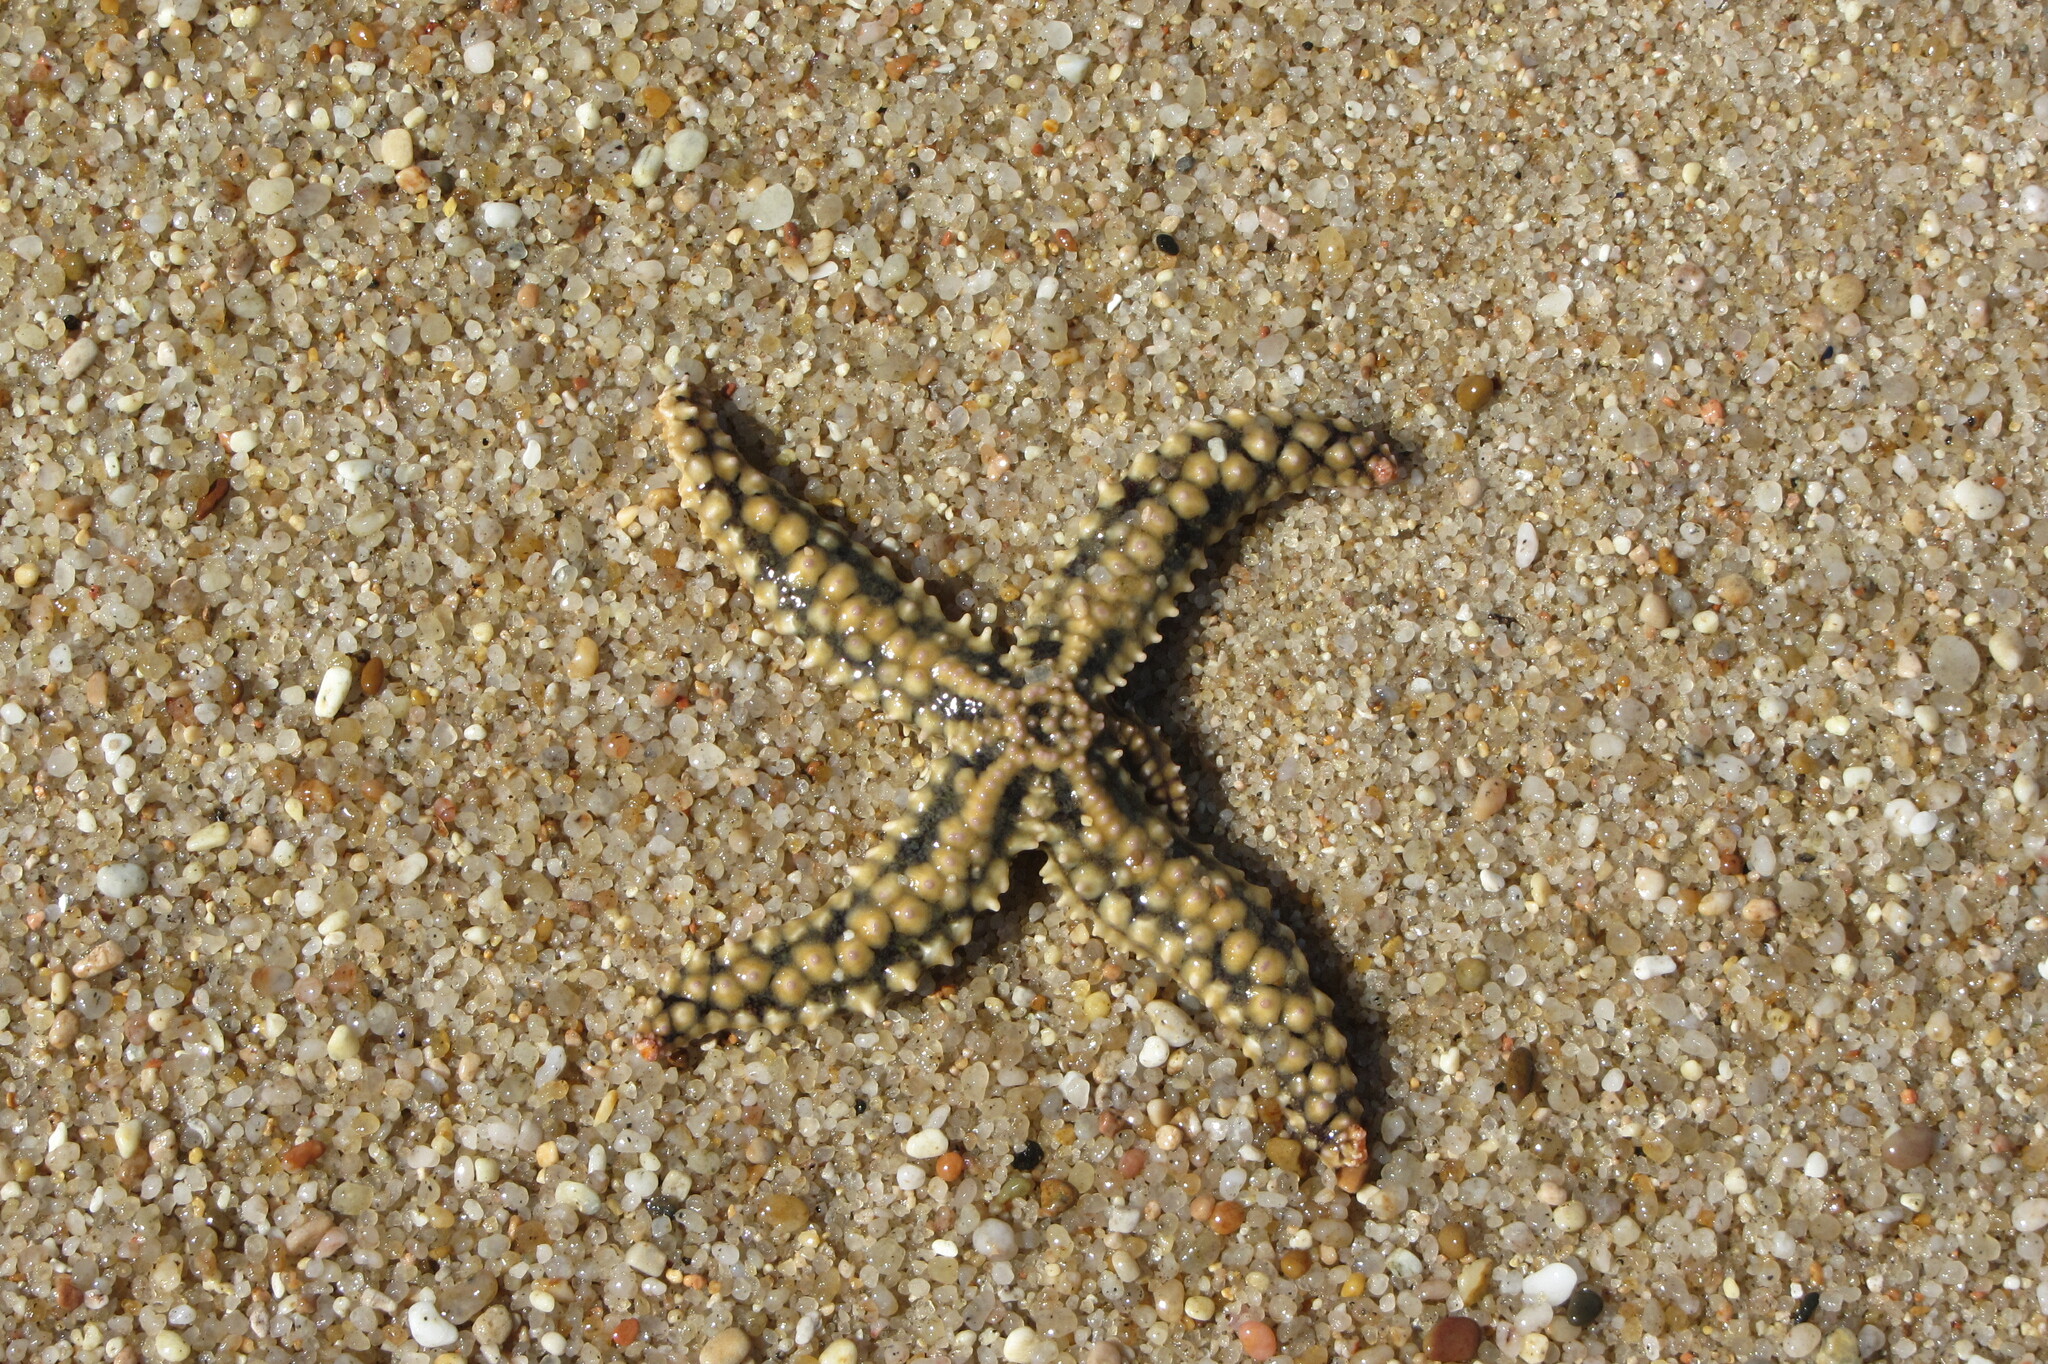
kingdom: Animalia
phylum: Echinodermata
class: Asteroidea
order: Forcipulatida
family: Asteriidae
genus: Marthasterias
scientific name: Marthasterias glacialis
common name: Spiny starfish
